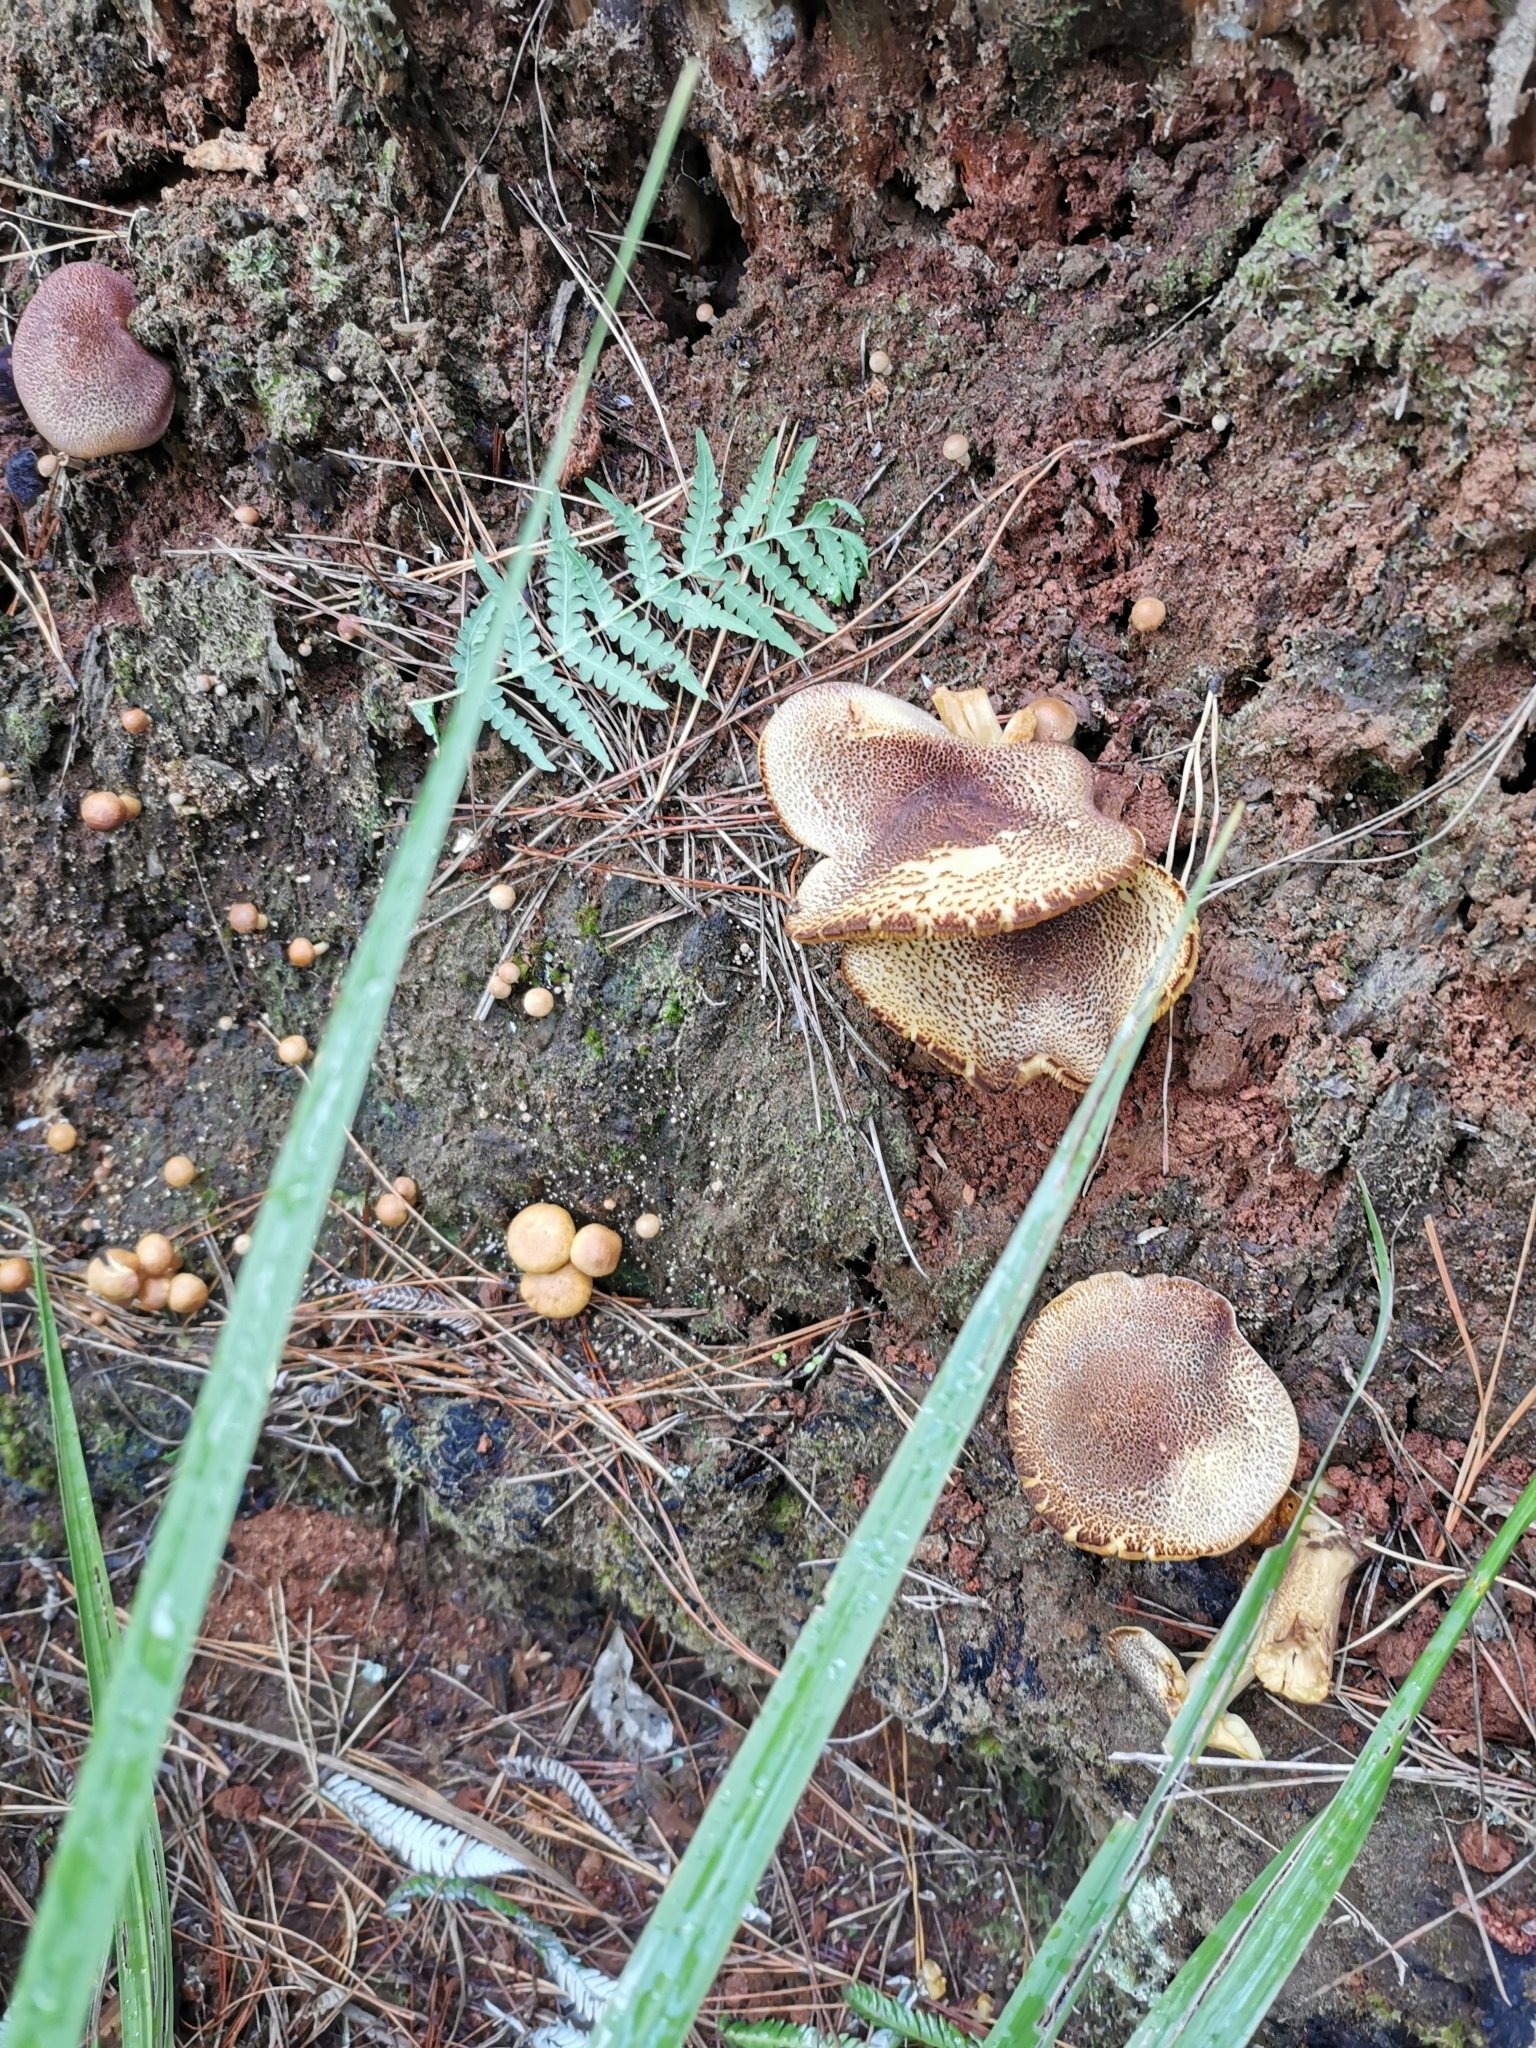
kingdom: Fungi
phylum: Basidiomycota
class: Agaricomycetes
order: Agaricales
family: Tricholomataceae
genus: Tricholomopsis
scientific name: Tricholomopsis ornaticeps
